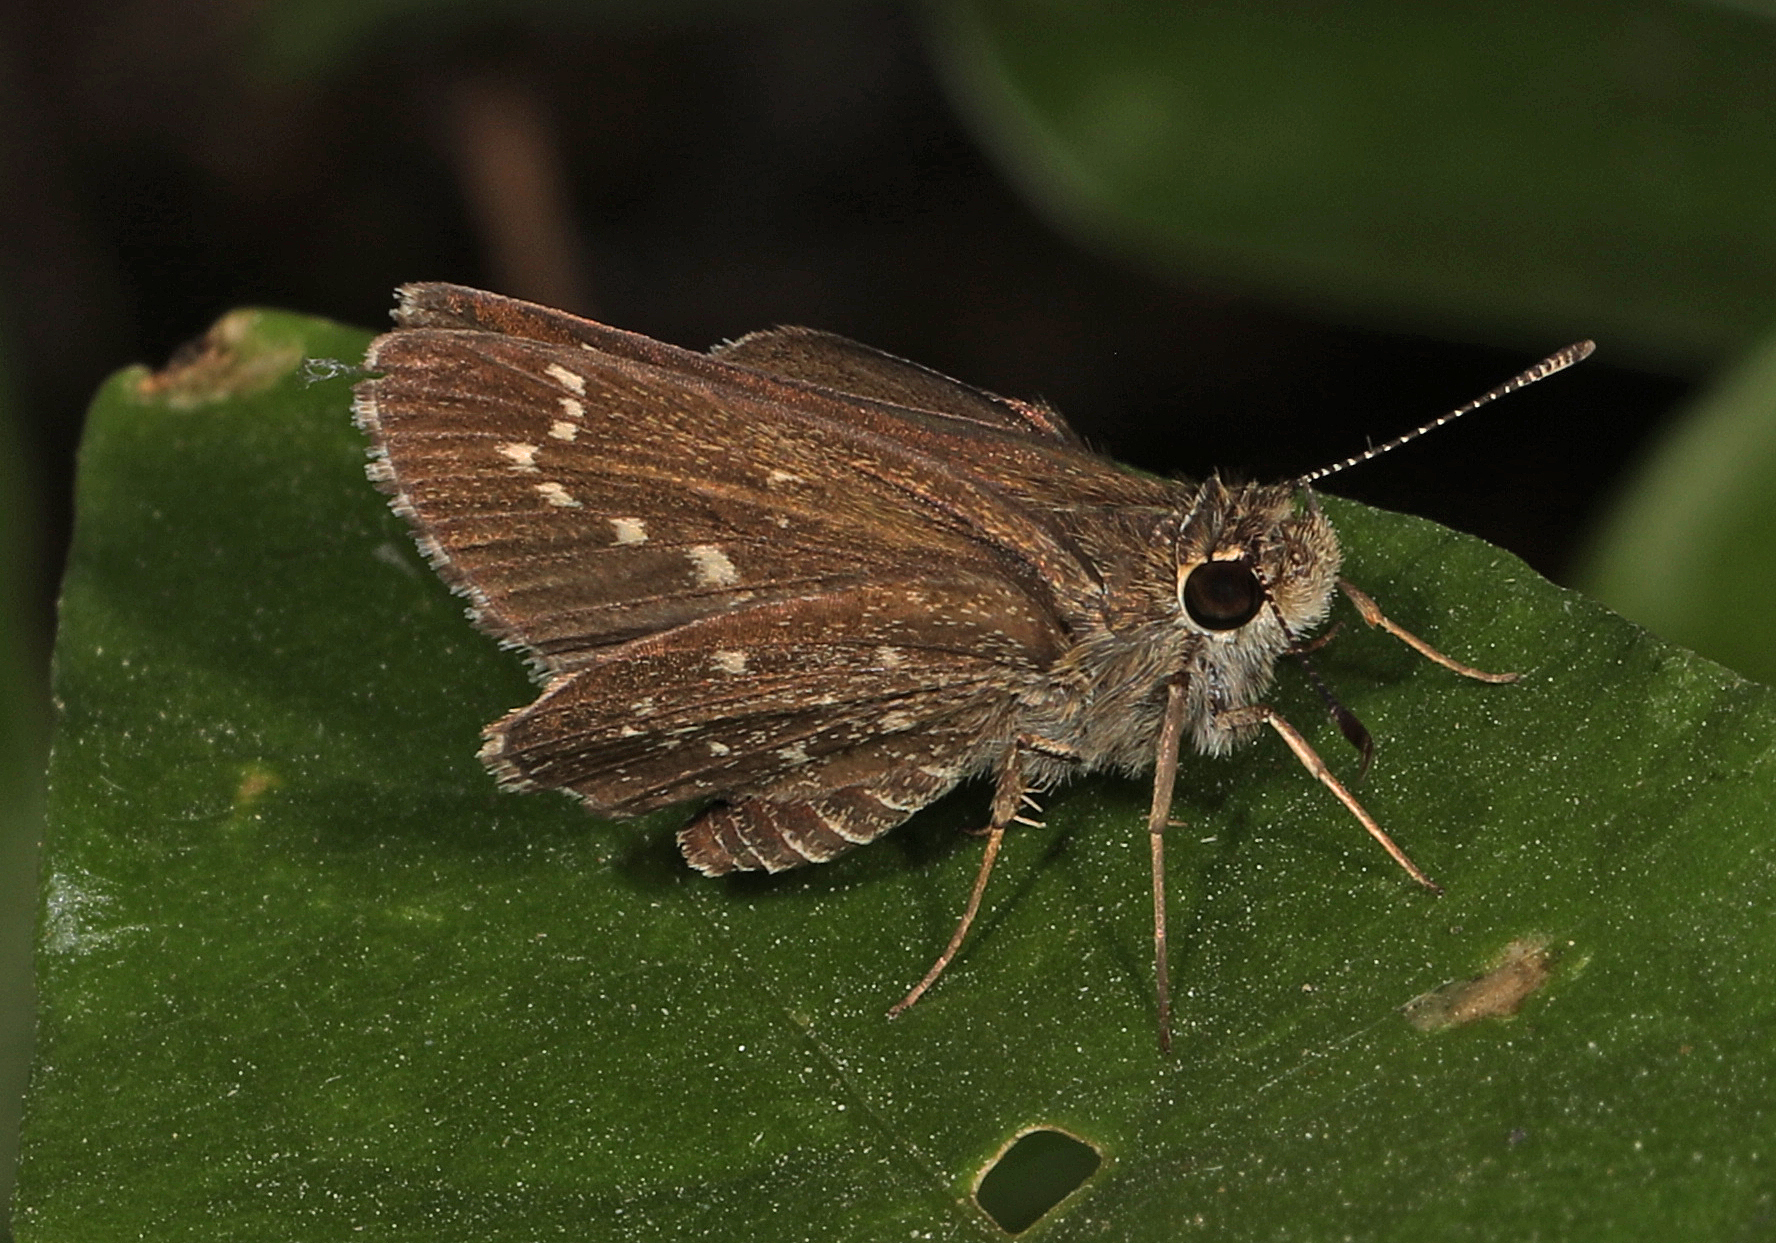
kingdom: Animalia
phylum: Arthropoda
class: Insecta
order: Lepidoptera
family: Hesperiidae
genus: Mastor
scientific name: Mastor celia
